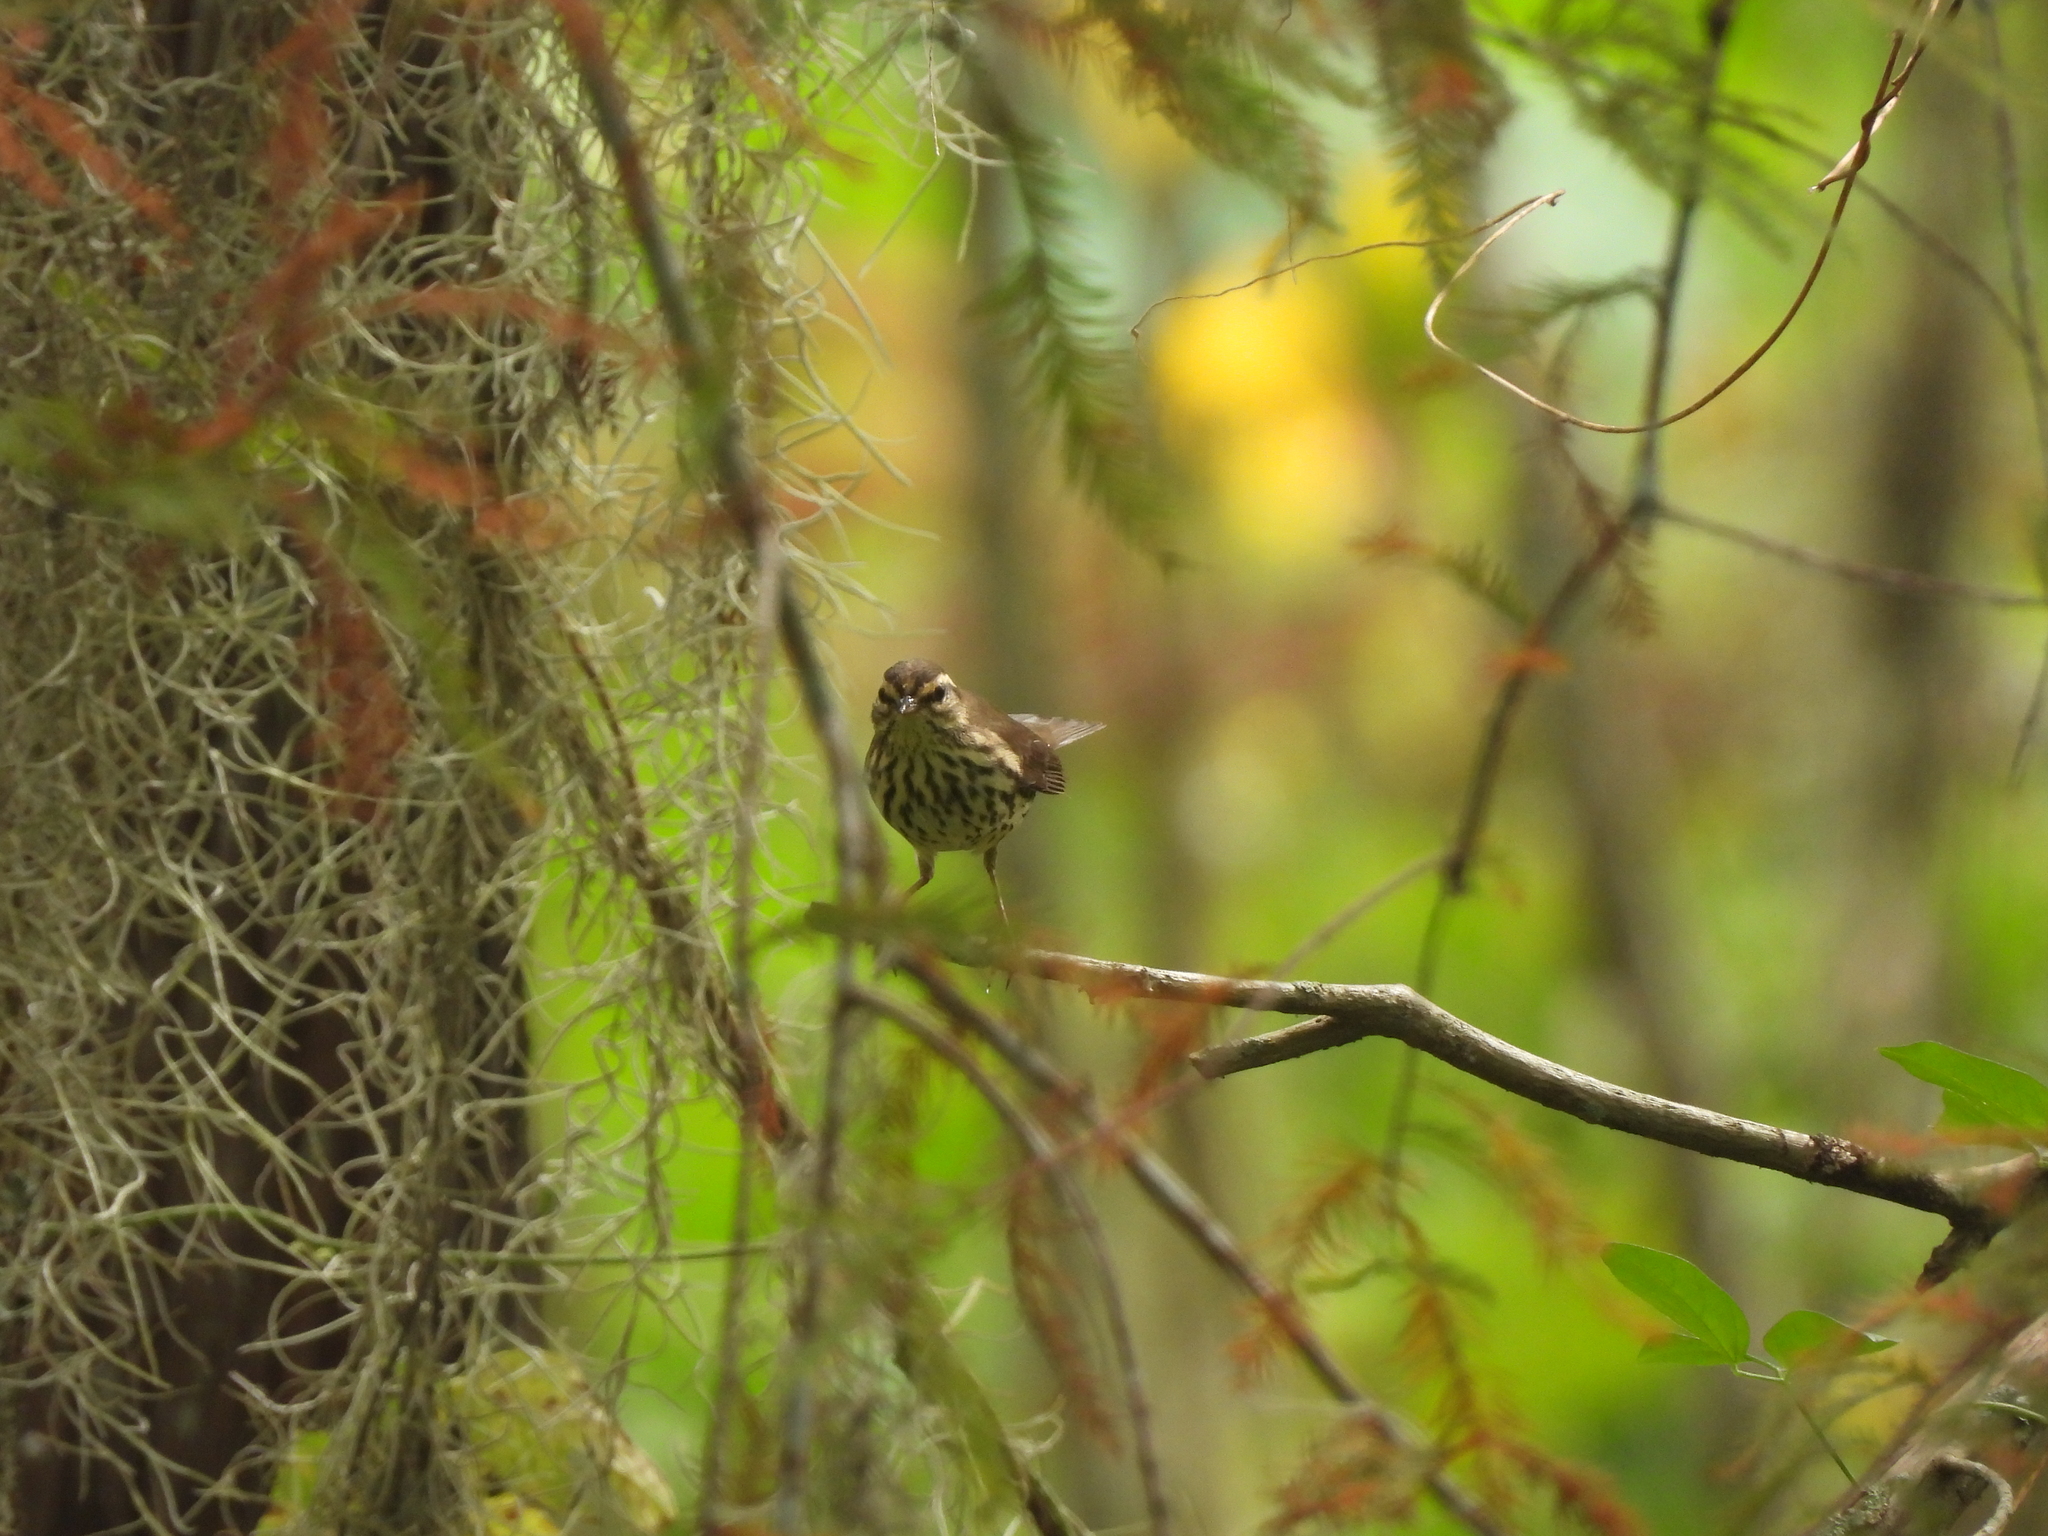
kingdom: Animalia
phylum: Chordata
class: Aves
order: Passeriformes
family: Parulidae
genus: Parkesia
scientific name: Parkesia noveboracensis
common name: Northern waterthrush
